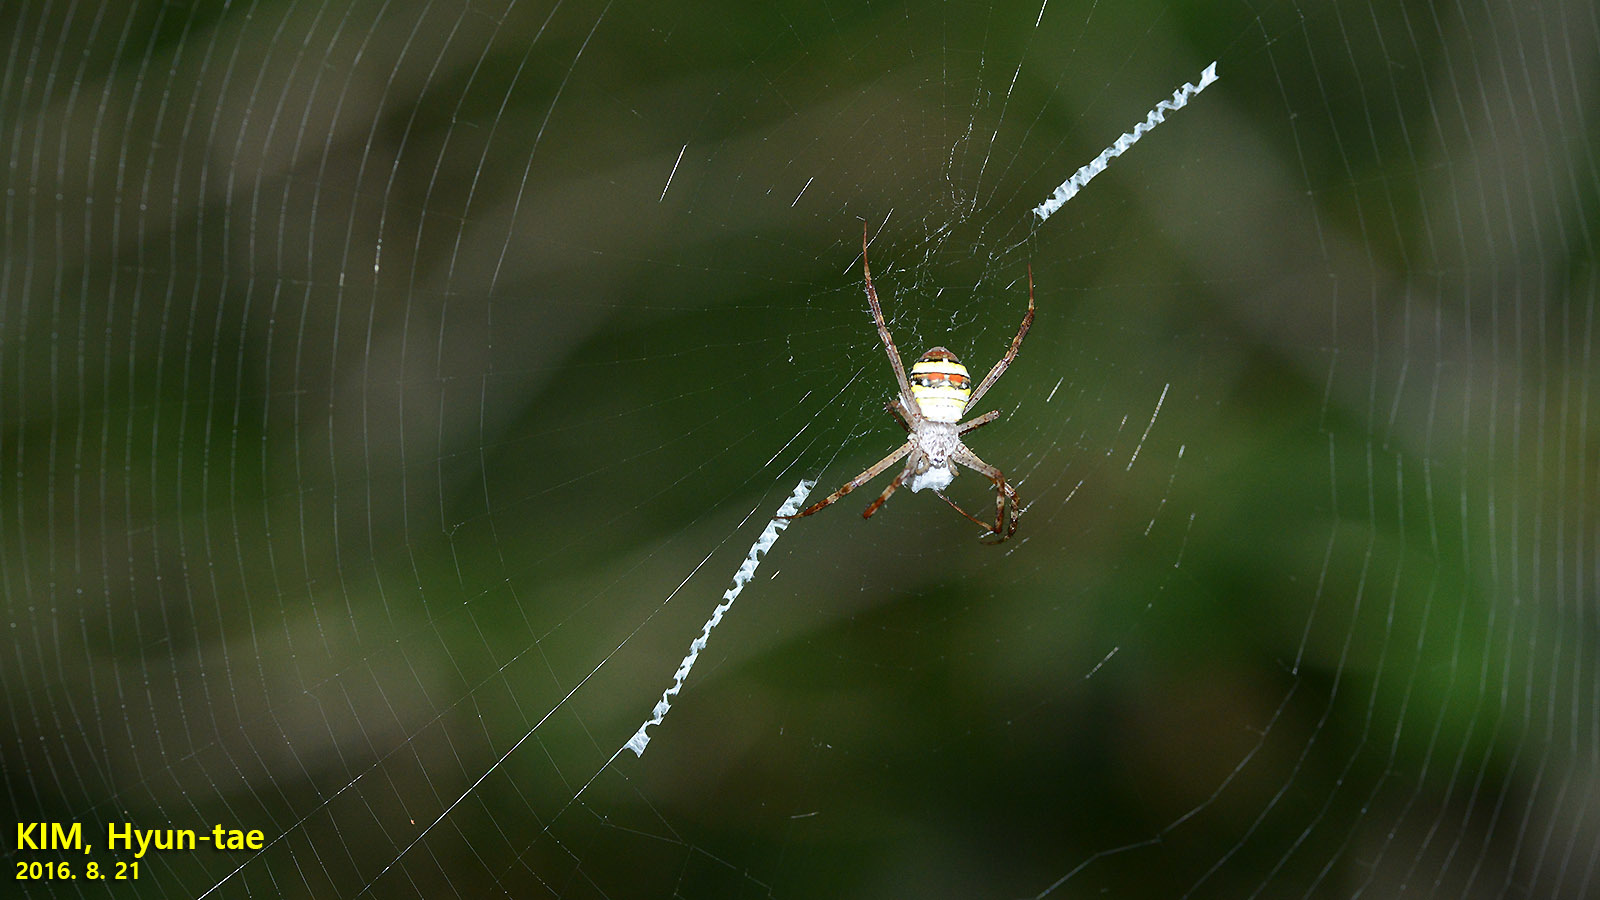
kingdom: Animalia
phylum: Arthropoda
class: Arachnida
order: Araneae
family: Araneidae
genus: Argiope
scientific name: Argiope minuta
